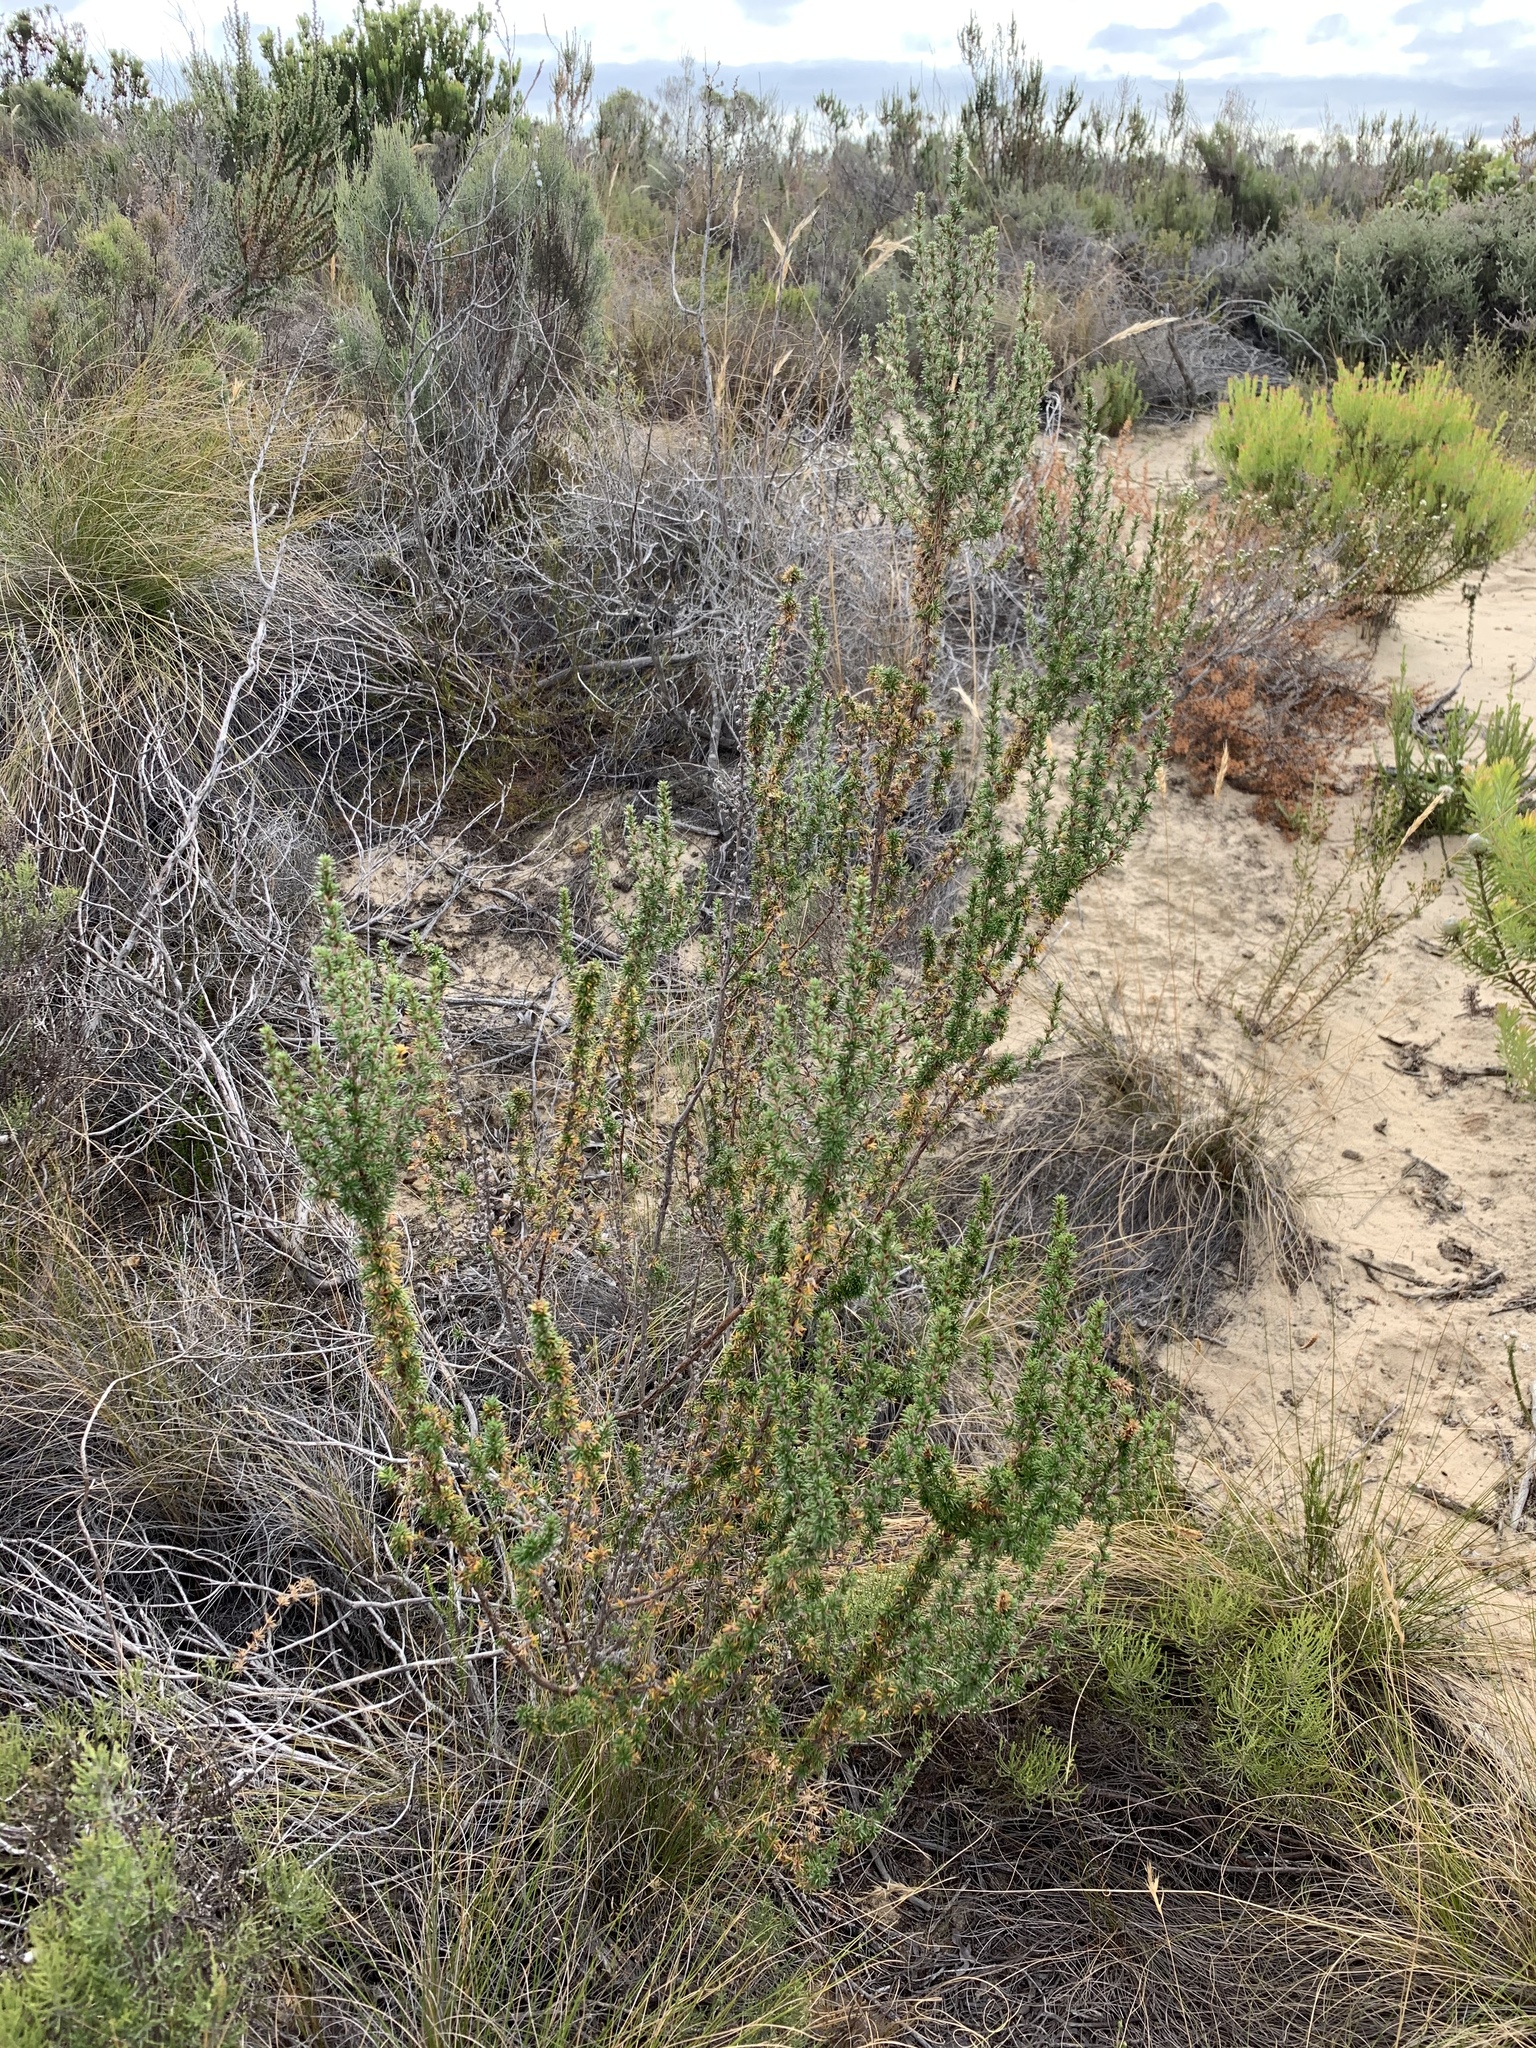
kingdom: Plantae
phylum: Tracheophyta
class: Magnoliopsida
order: Rosales
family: Rosaceae
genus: Cliffortia
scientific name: Cliffortia stricta
